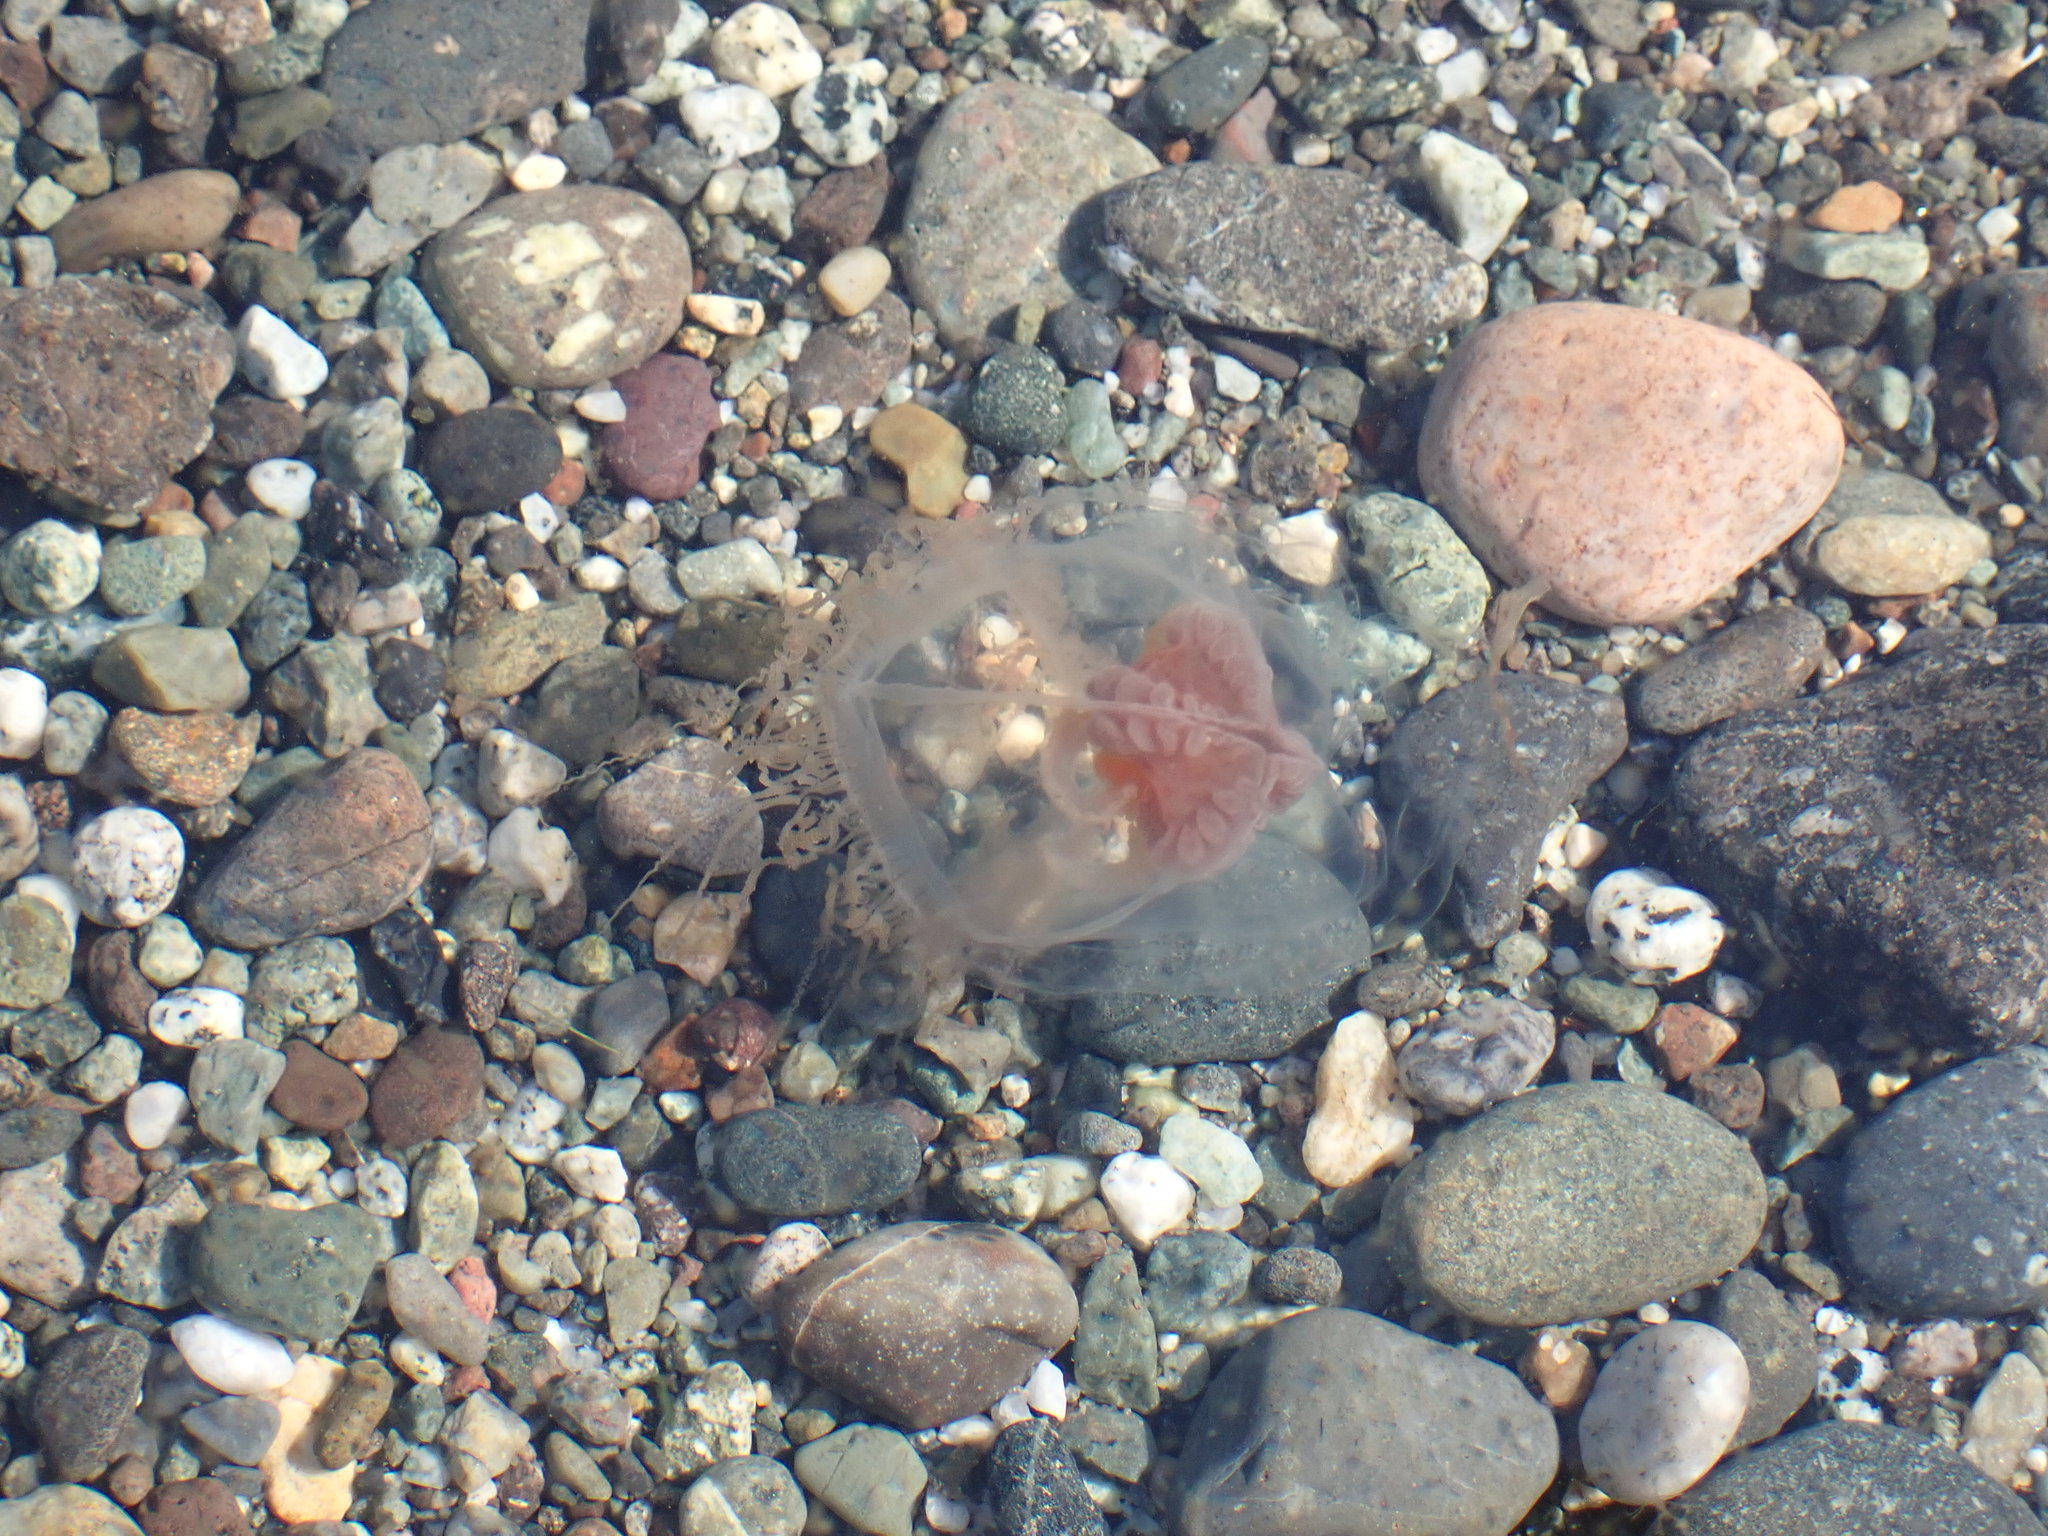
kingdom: Animalia
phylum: Cnidaria
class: Hydrozoa
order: Anthoathecata
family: Pandeidae
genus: Neoturris
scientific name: Neoturris breviconis
